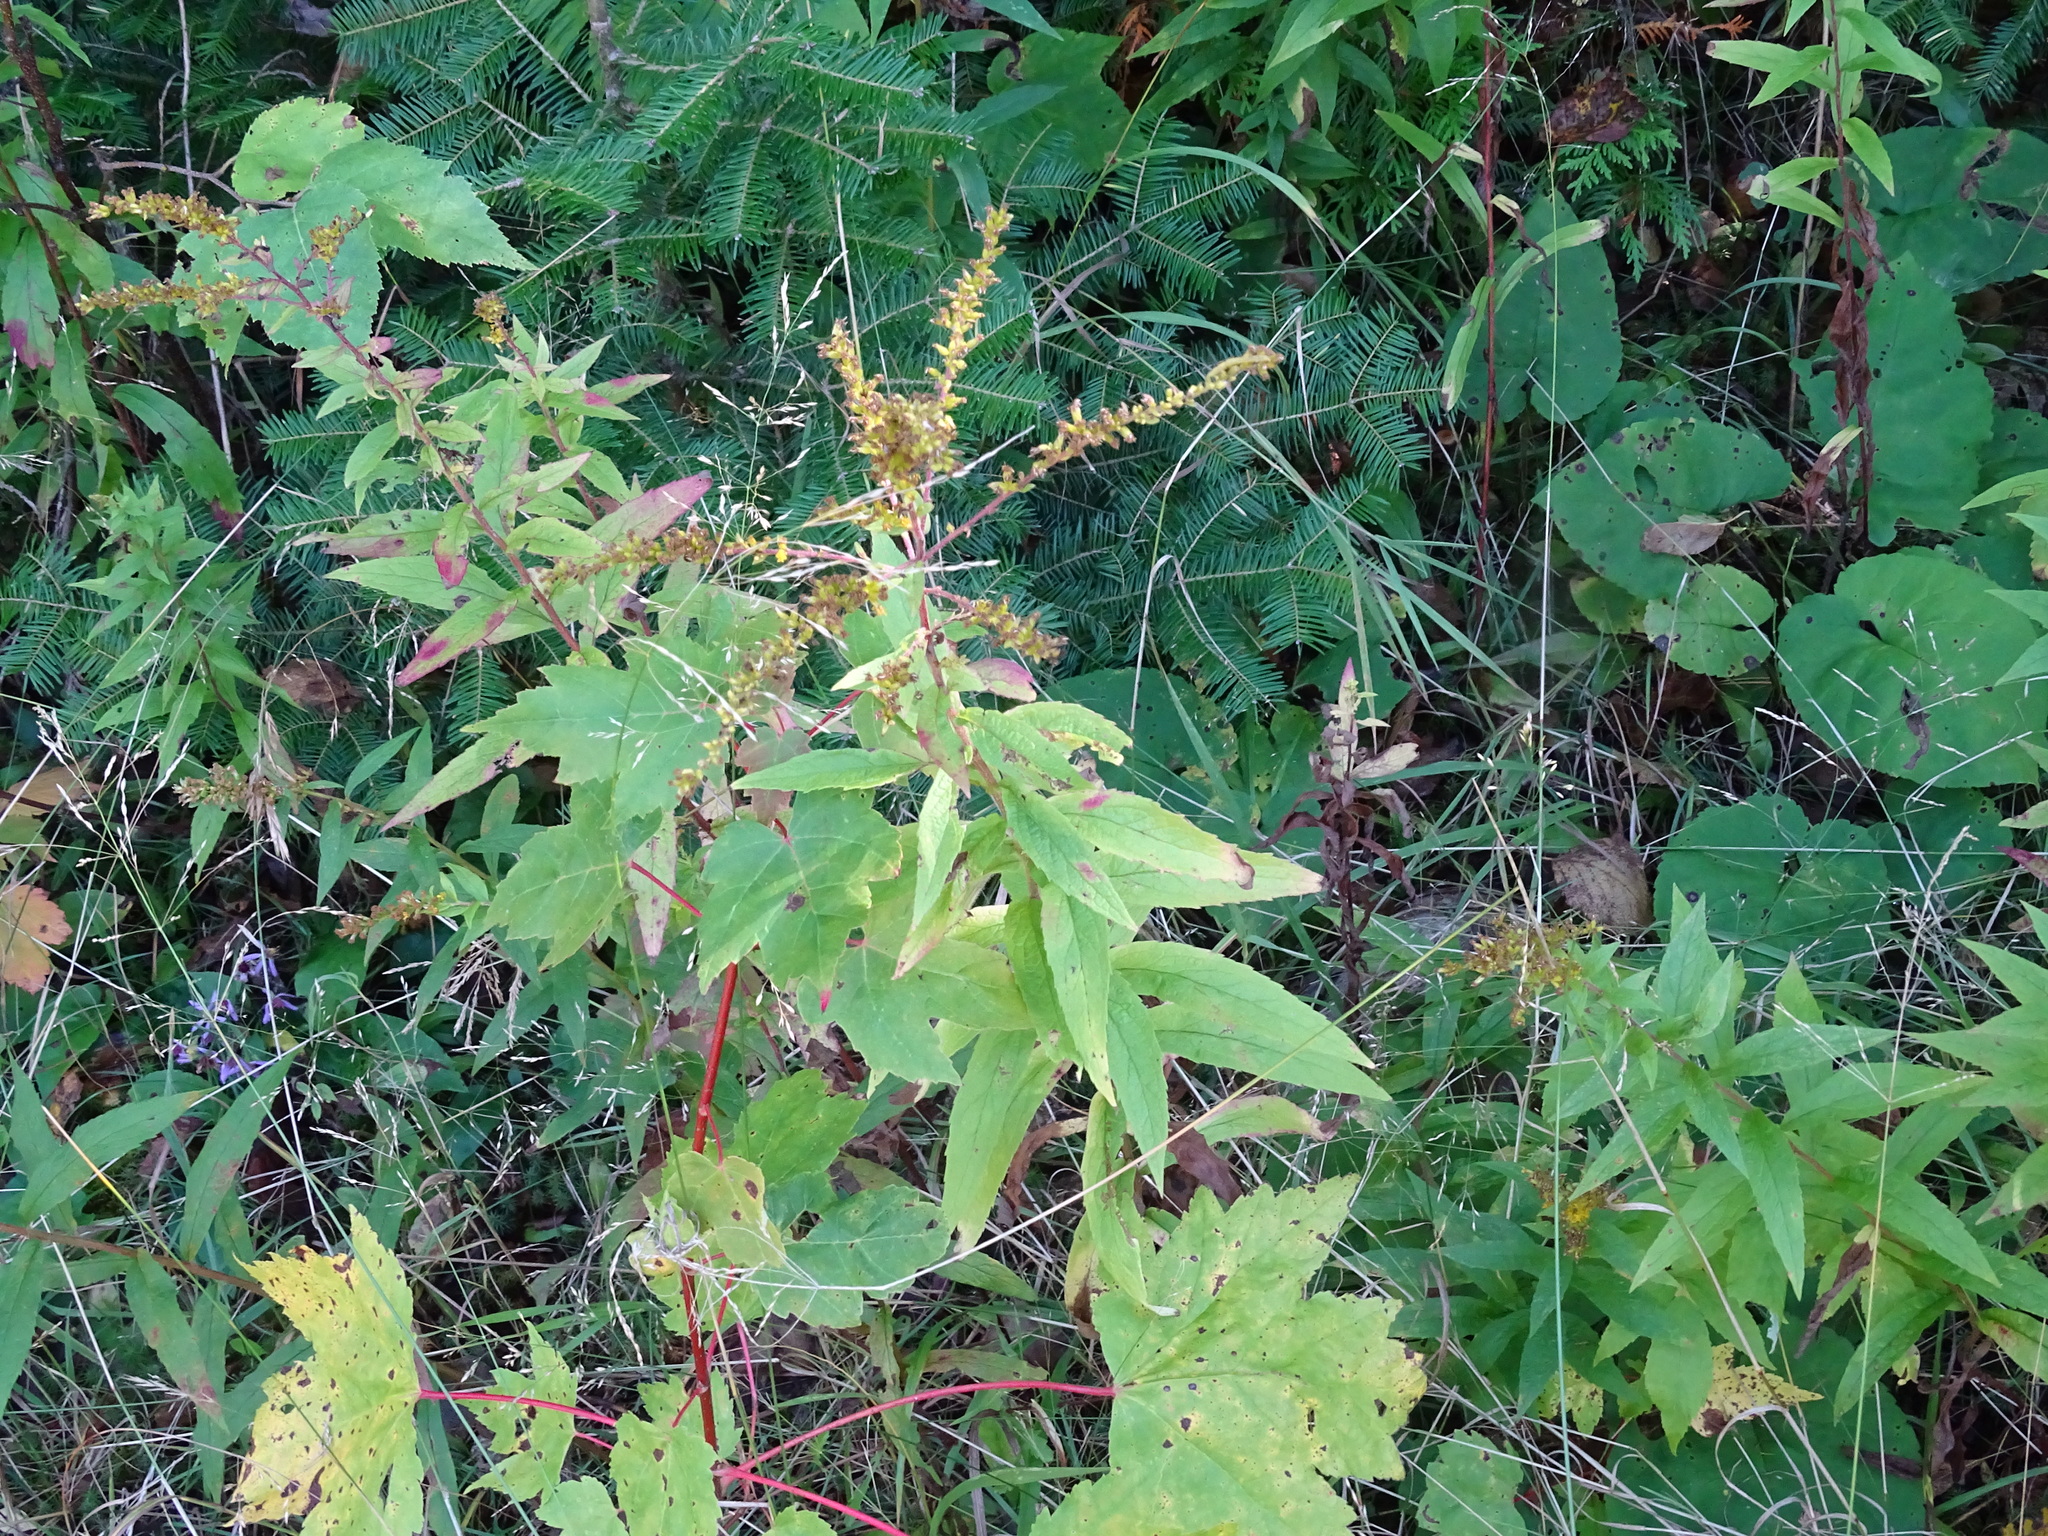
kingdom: Plantae
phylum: Tracheophyta
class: Magnoliopsida
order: Asterales
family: Asteraceae
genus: Solidago
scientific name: Solidago rugosa
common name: Rough-stemmed goldenrod
